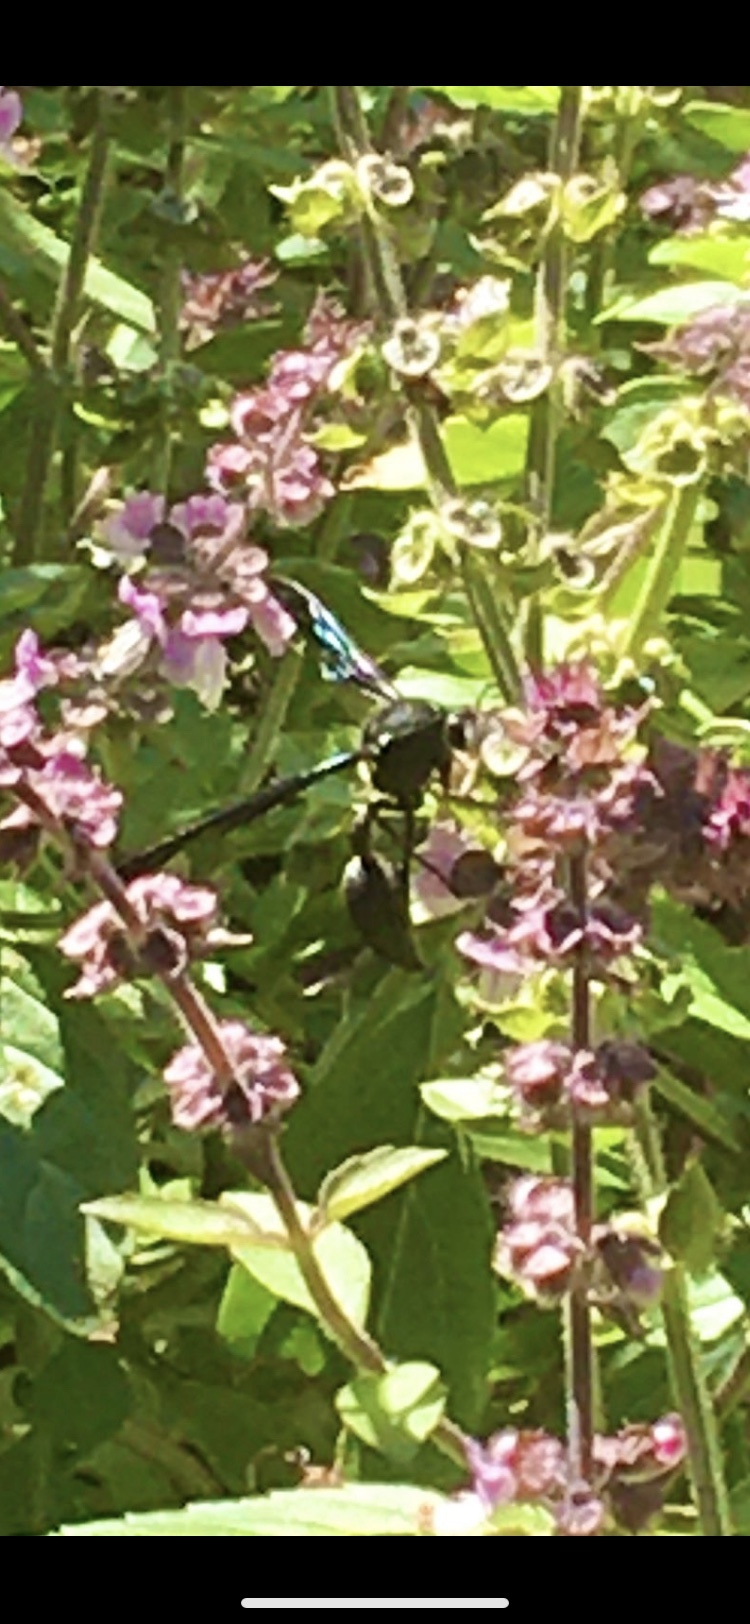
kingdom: Animalia
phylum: Arthropoda
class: Insecta
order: Hymenoptera
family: Eumenidae
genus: Delta
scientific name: Delta
